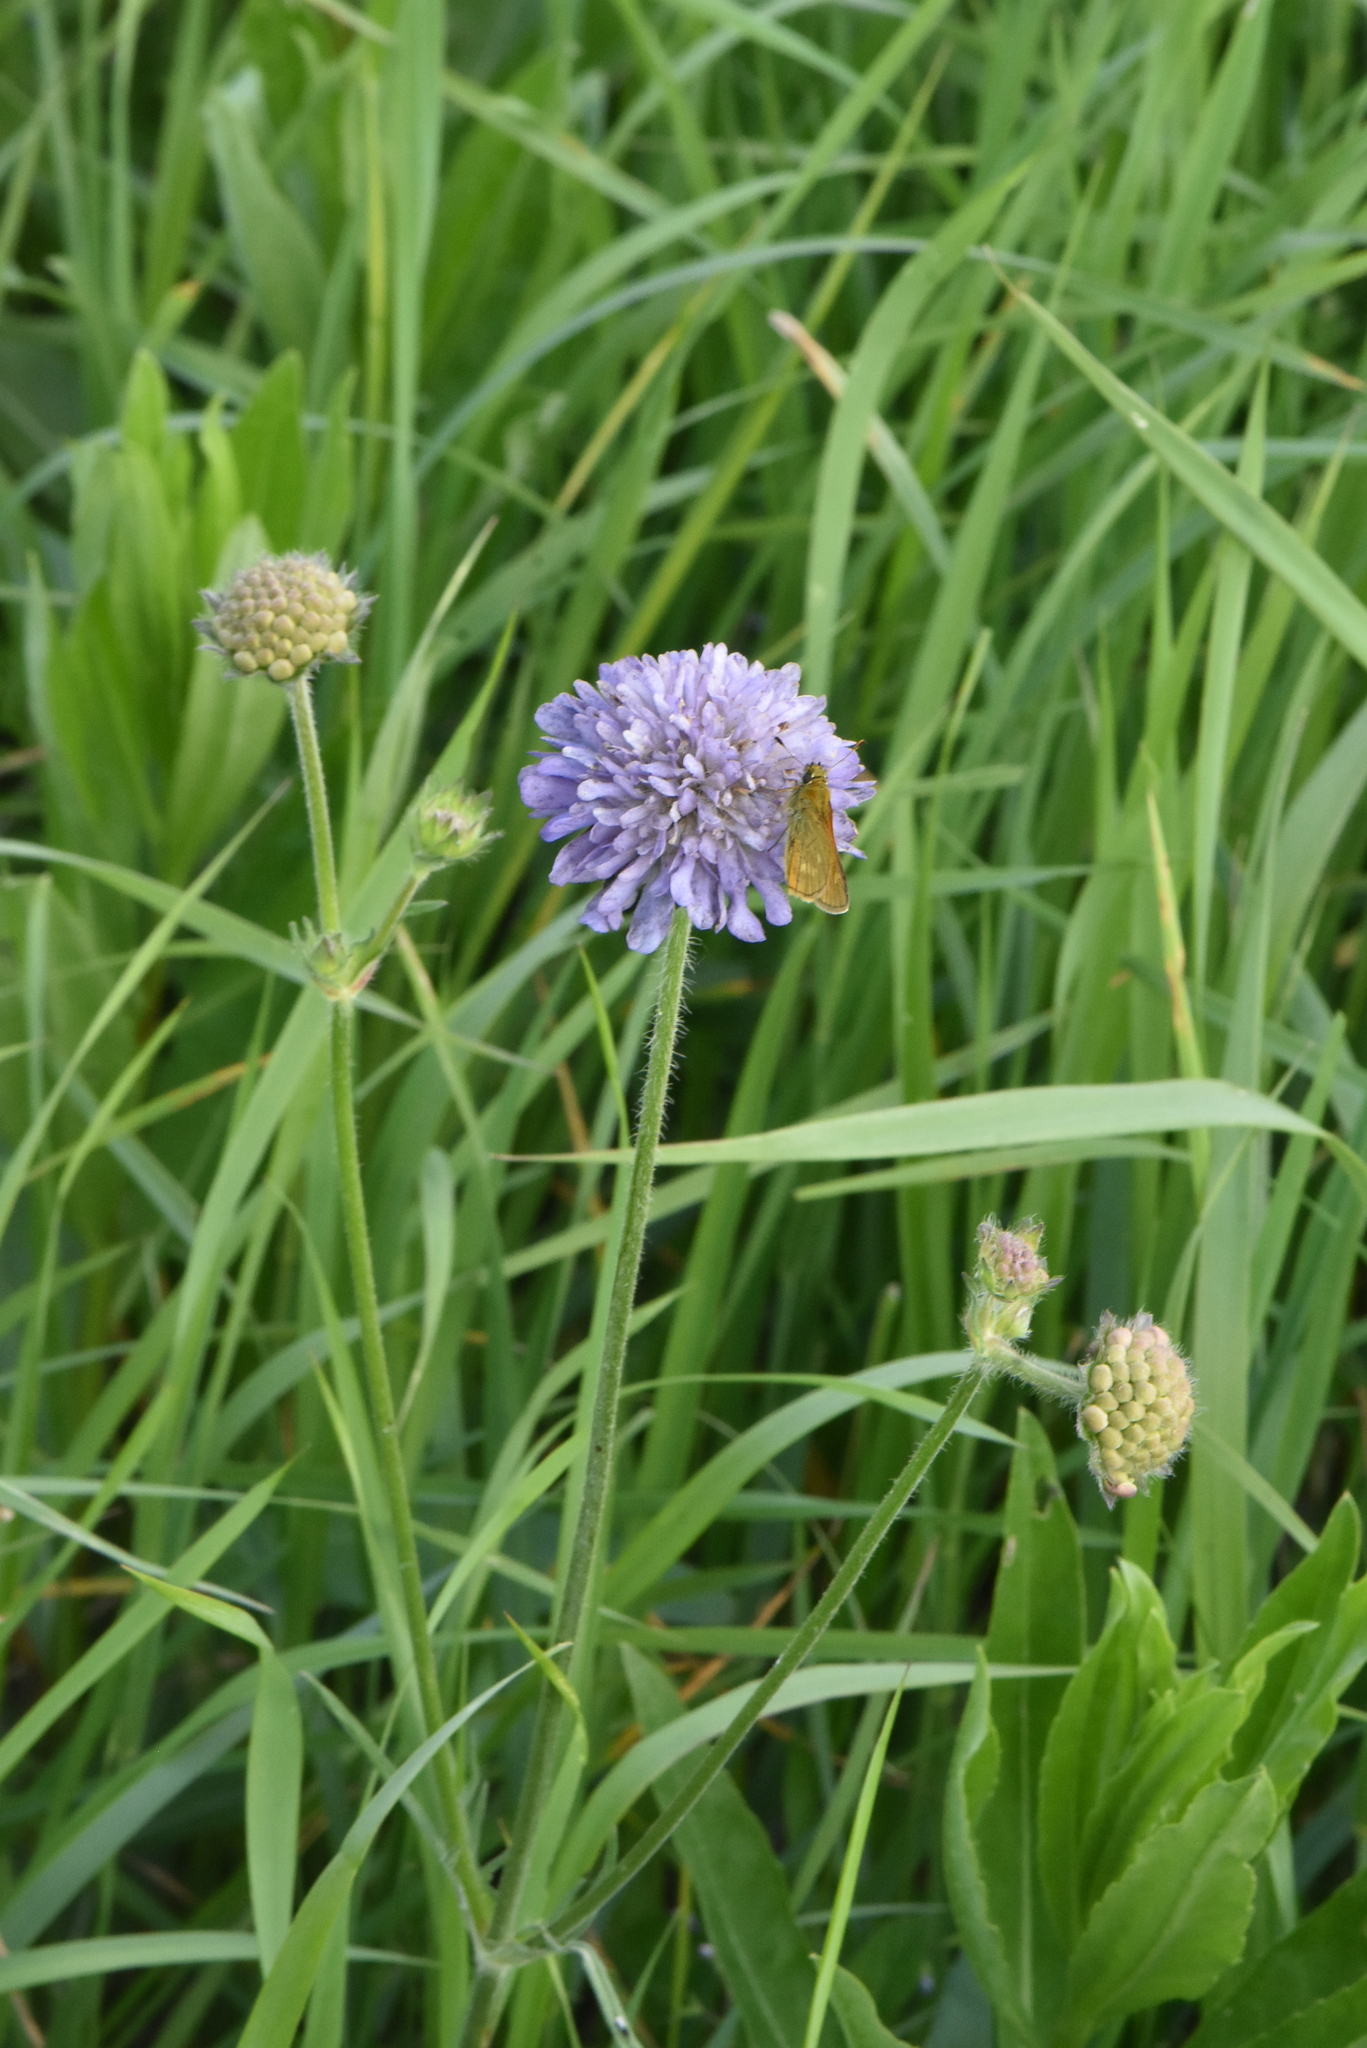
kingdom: Plantae
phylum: Tracheophyta
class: Magnoliopsida
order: Dipsacales
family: Caprifoliaceae
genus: Knautia
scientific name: Knautia arvensis
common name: Field scabiosa
